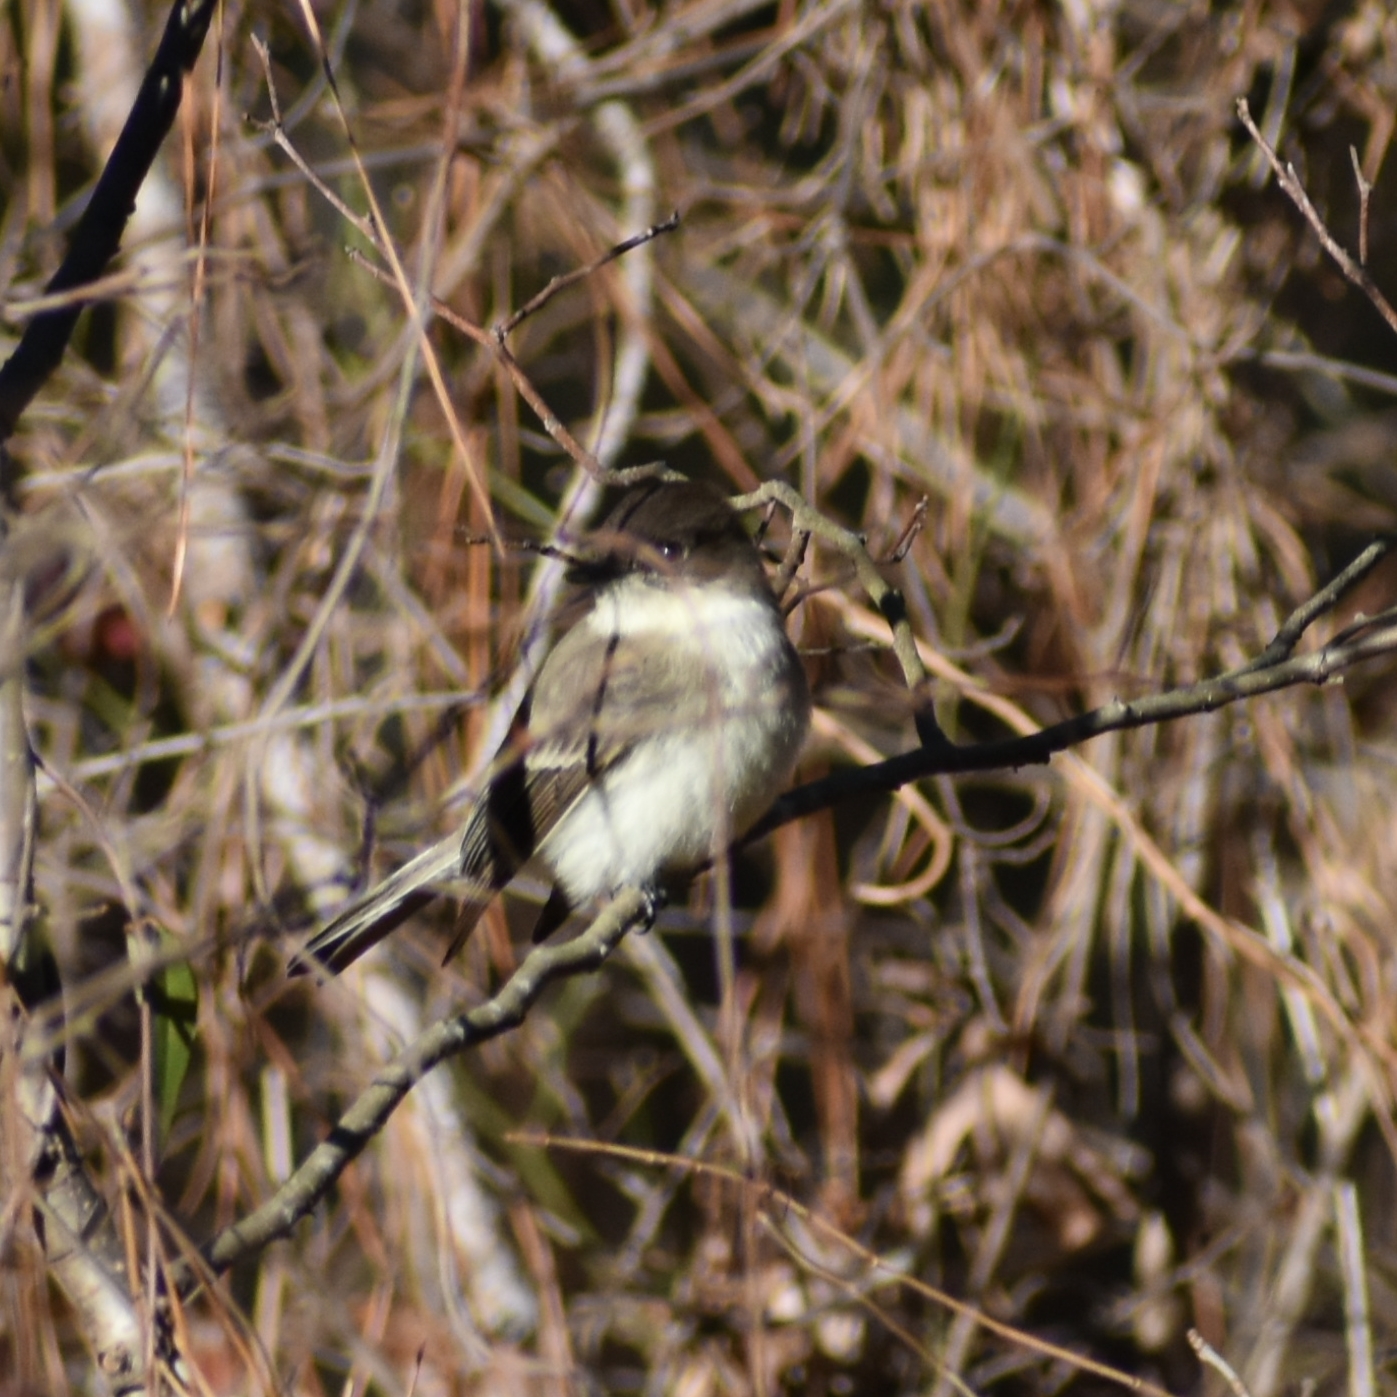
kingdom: Animalia
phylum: Chordata
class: Aves
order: Passeriformes
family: Tyrannidae
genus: Sayornis
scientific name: Sayornis phoebe
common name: Eastern phoebe
